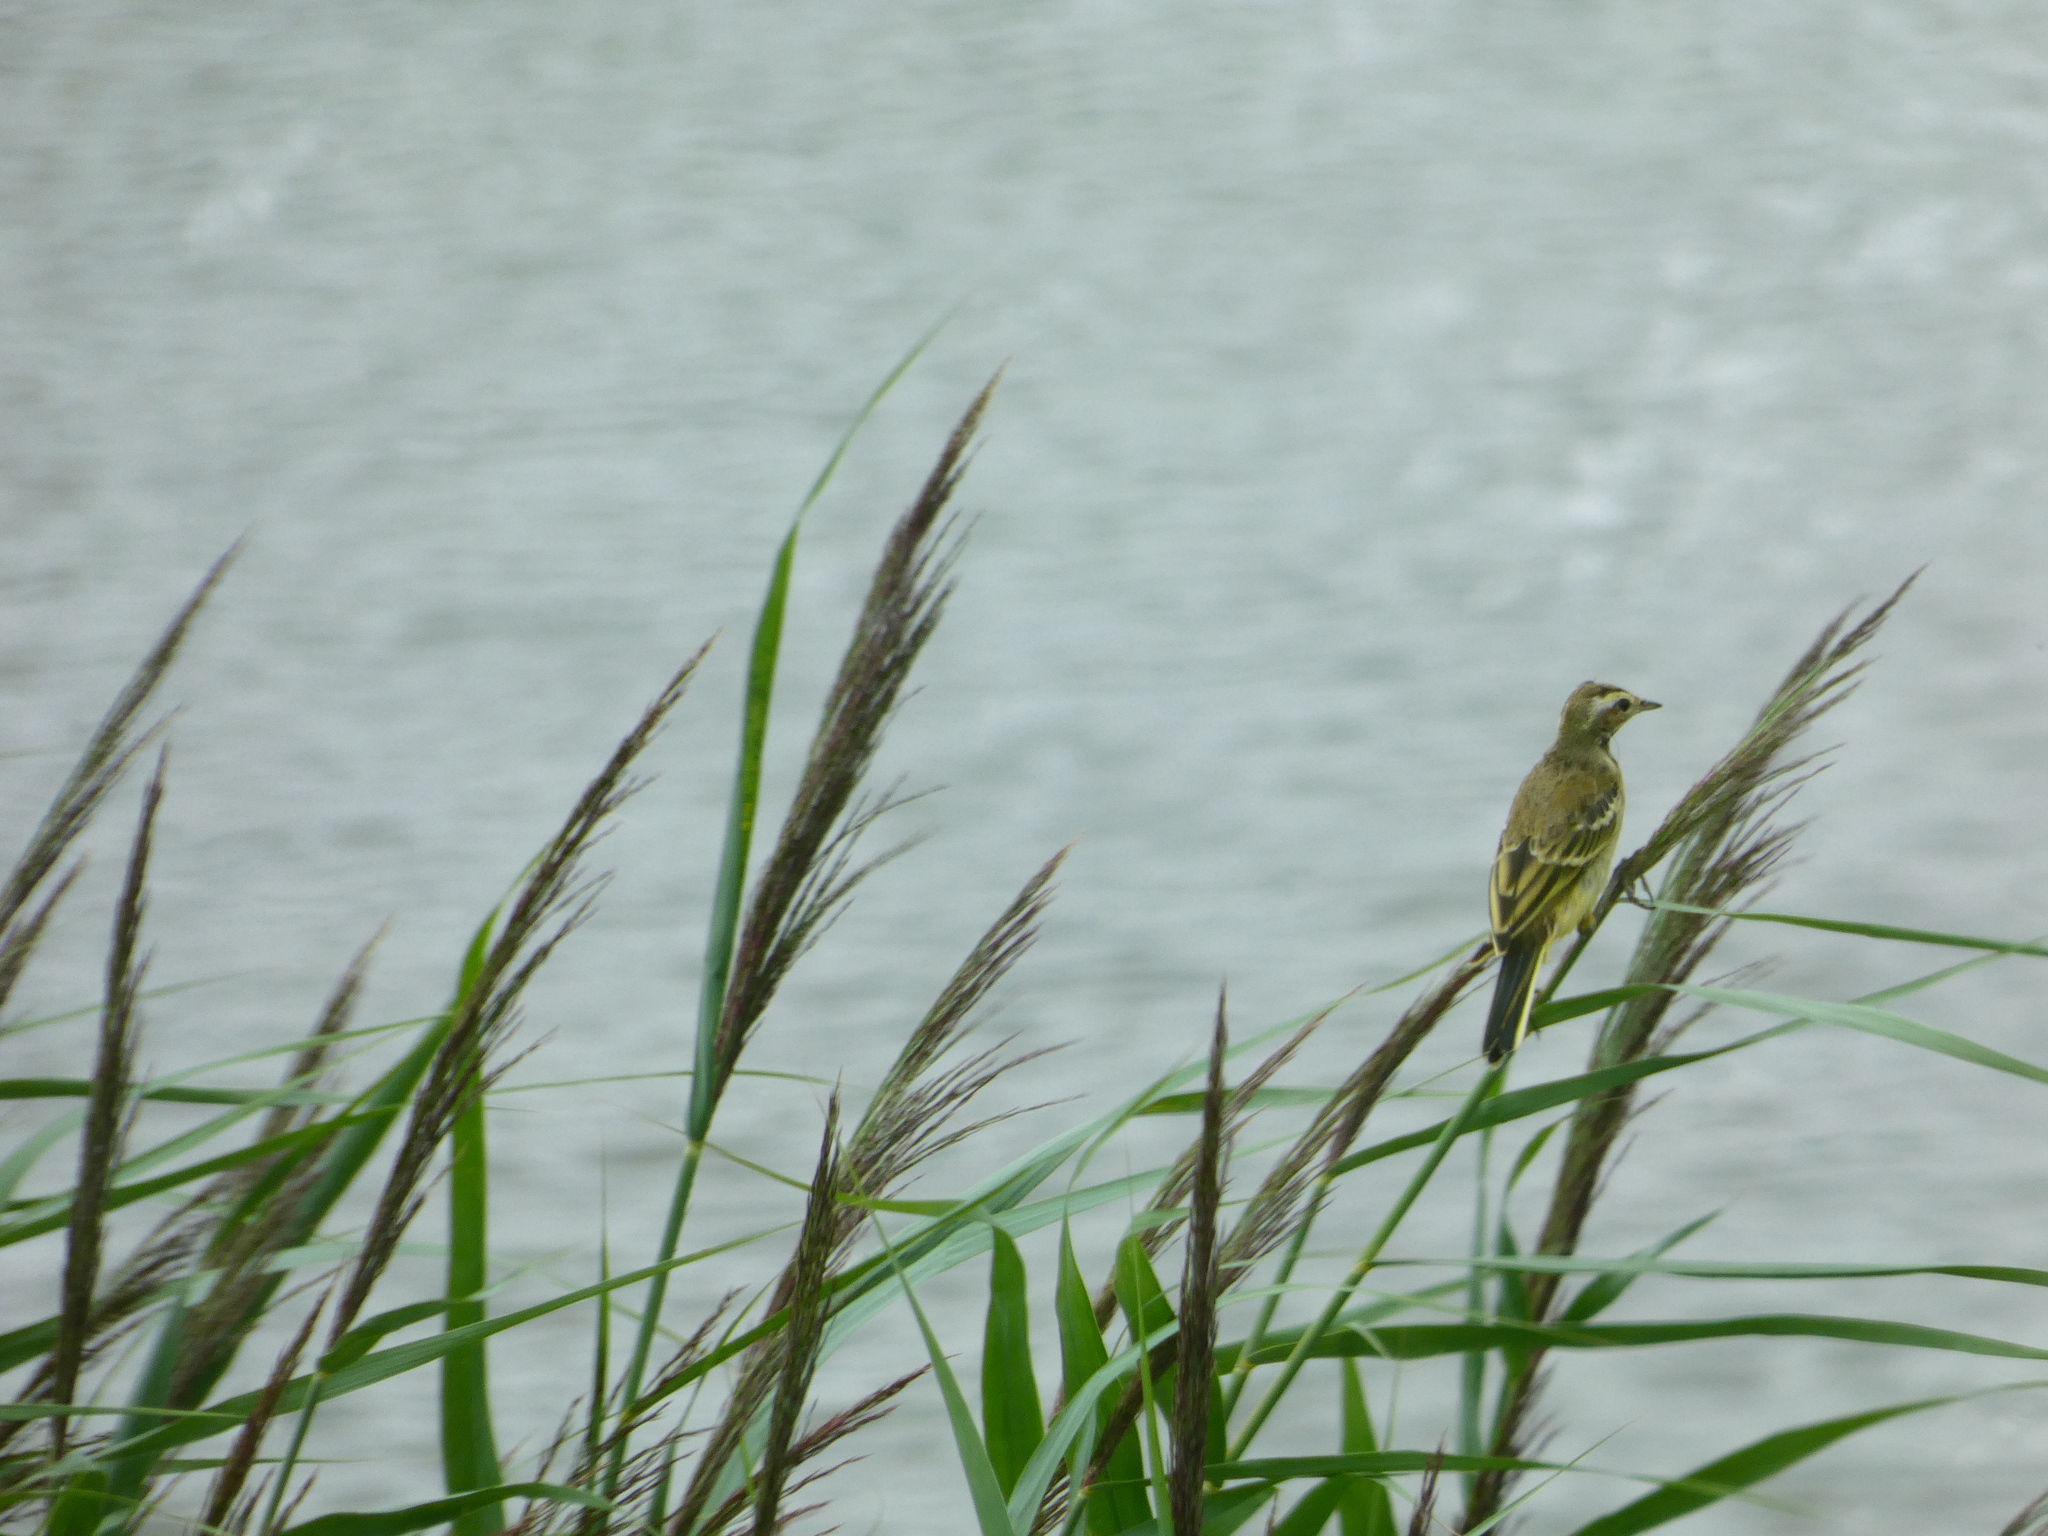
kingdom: Animalia
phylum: Chordata
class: Aves
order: Passeriformes
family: Motacillidae
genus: Motacilla
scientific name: Motacilla flava
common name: Western yellow wagtail
